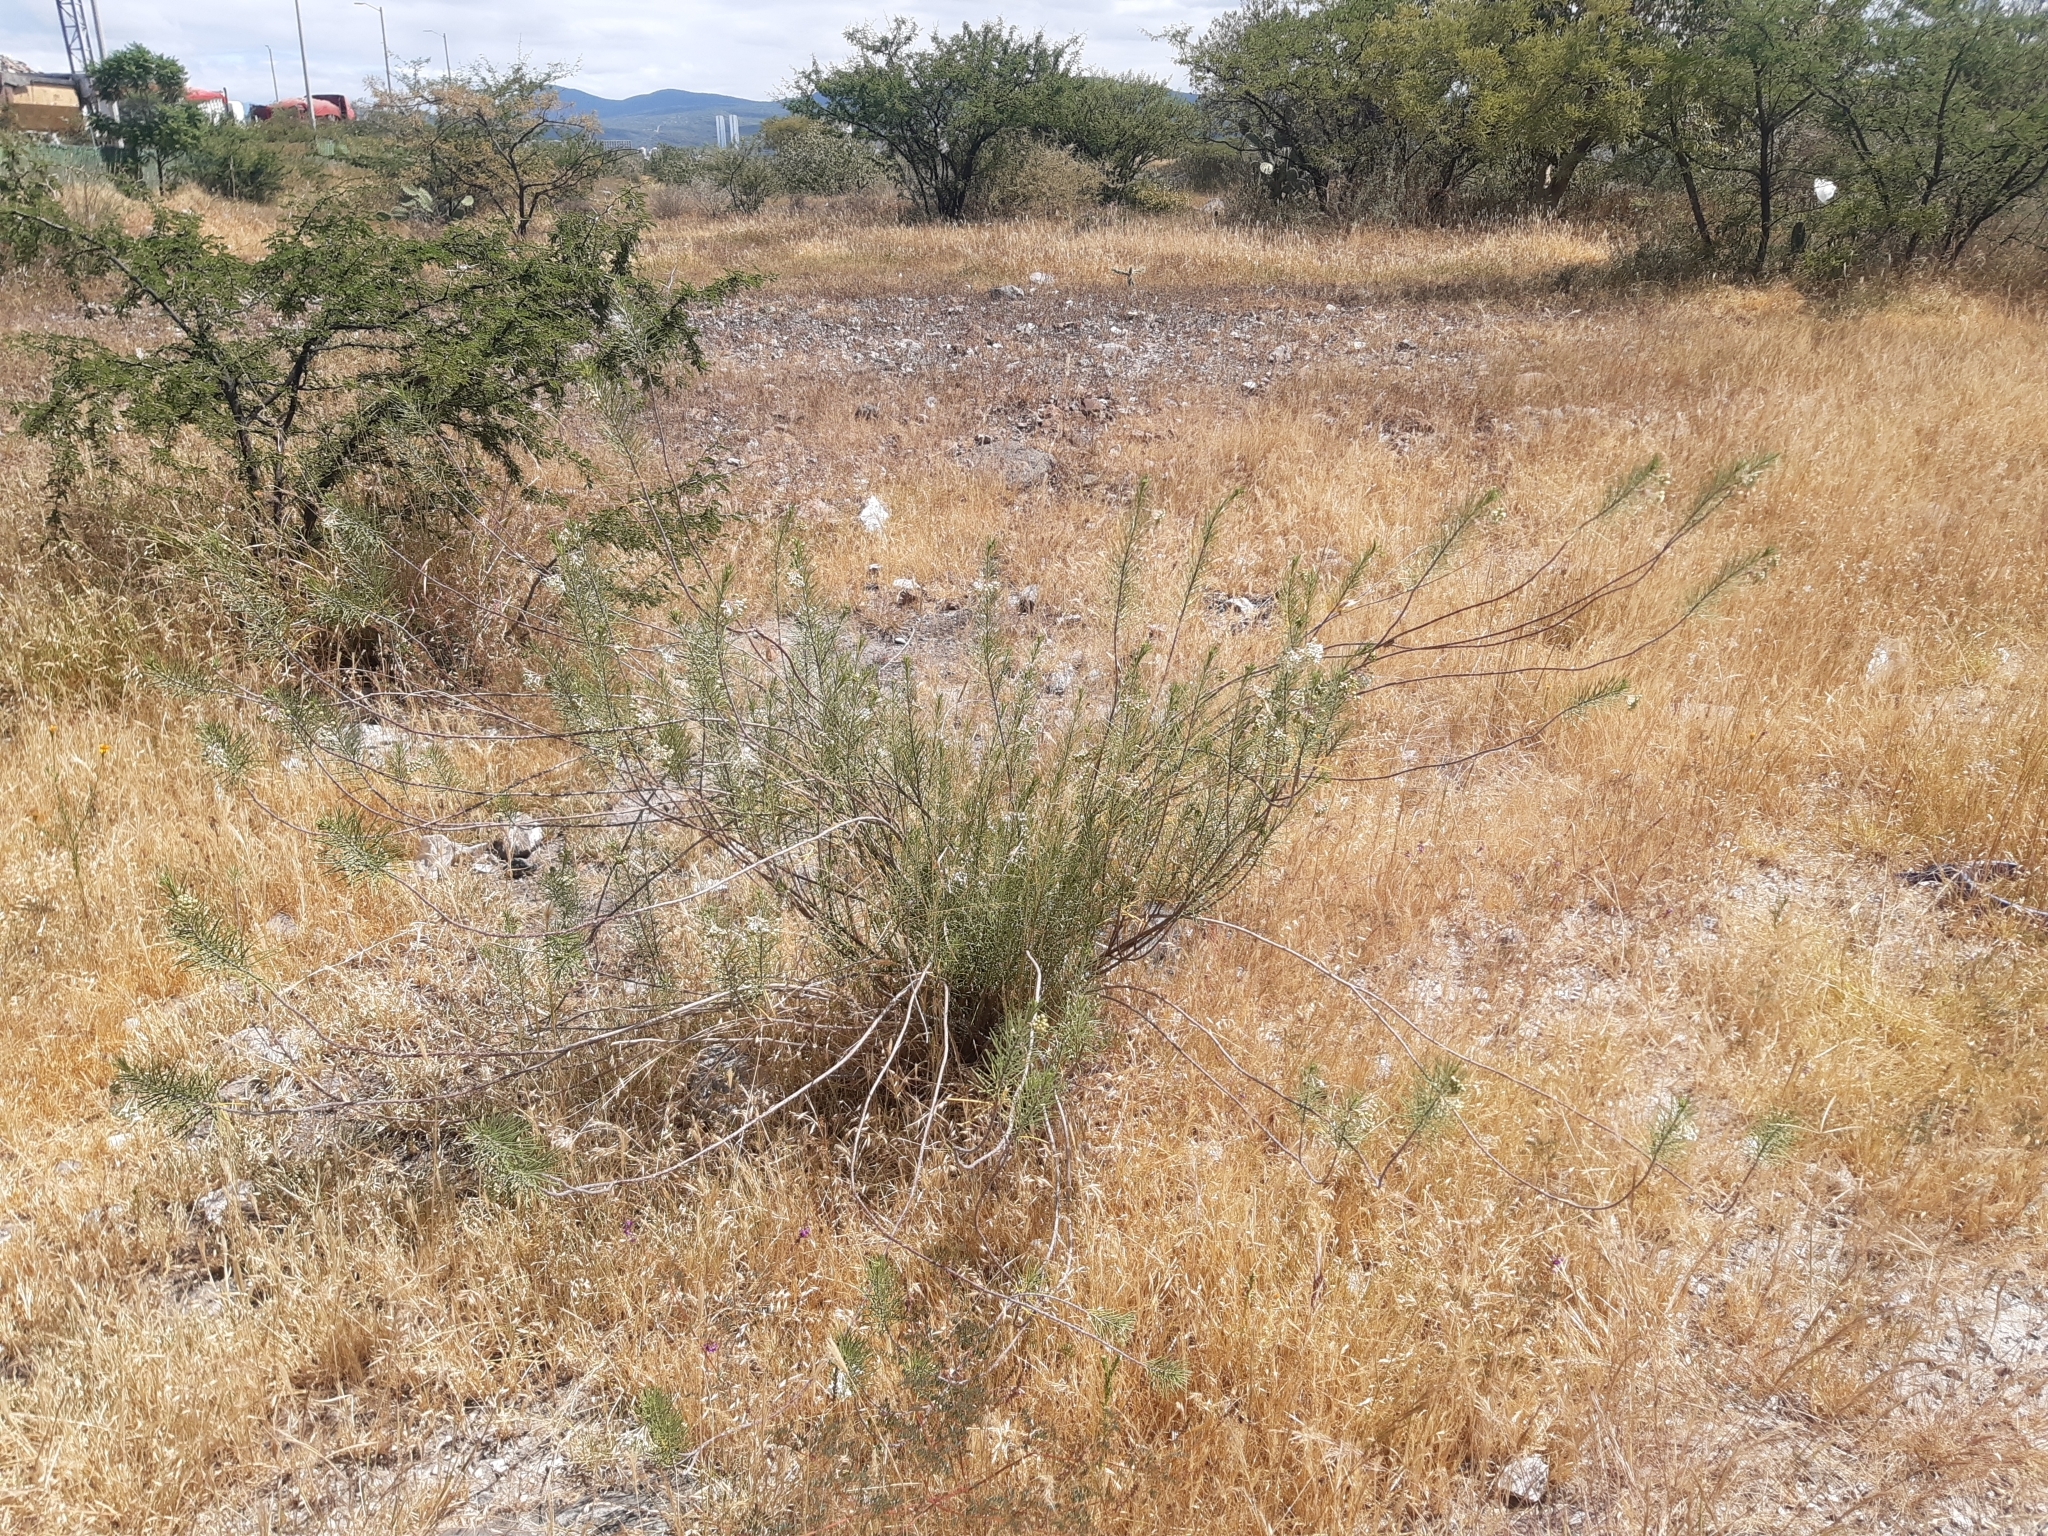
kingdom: Plantae
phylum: Tracheophyta
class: Magnoliopsida
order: Gentianales
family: Apocynaceae
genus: Asclepias
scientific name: Asclepias linaria
